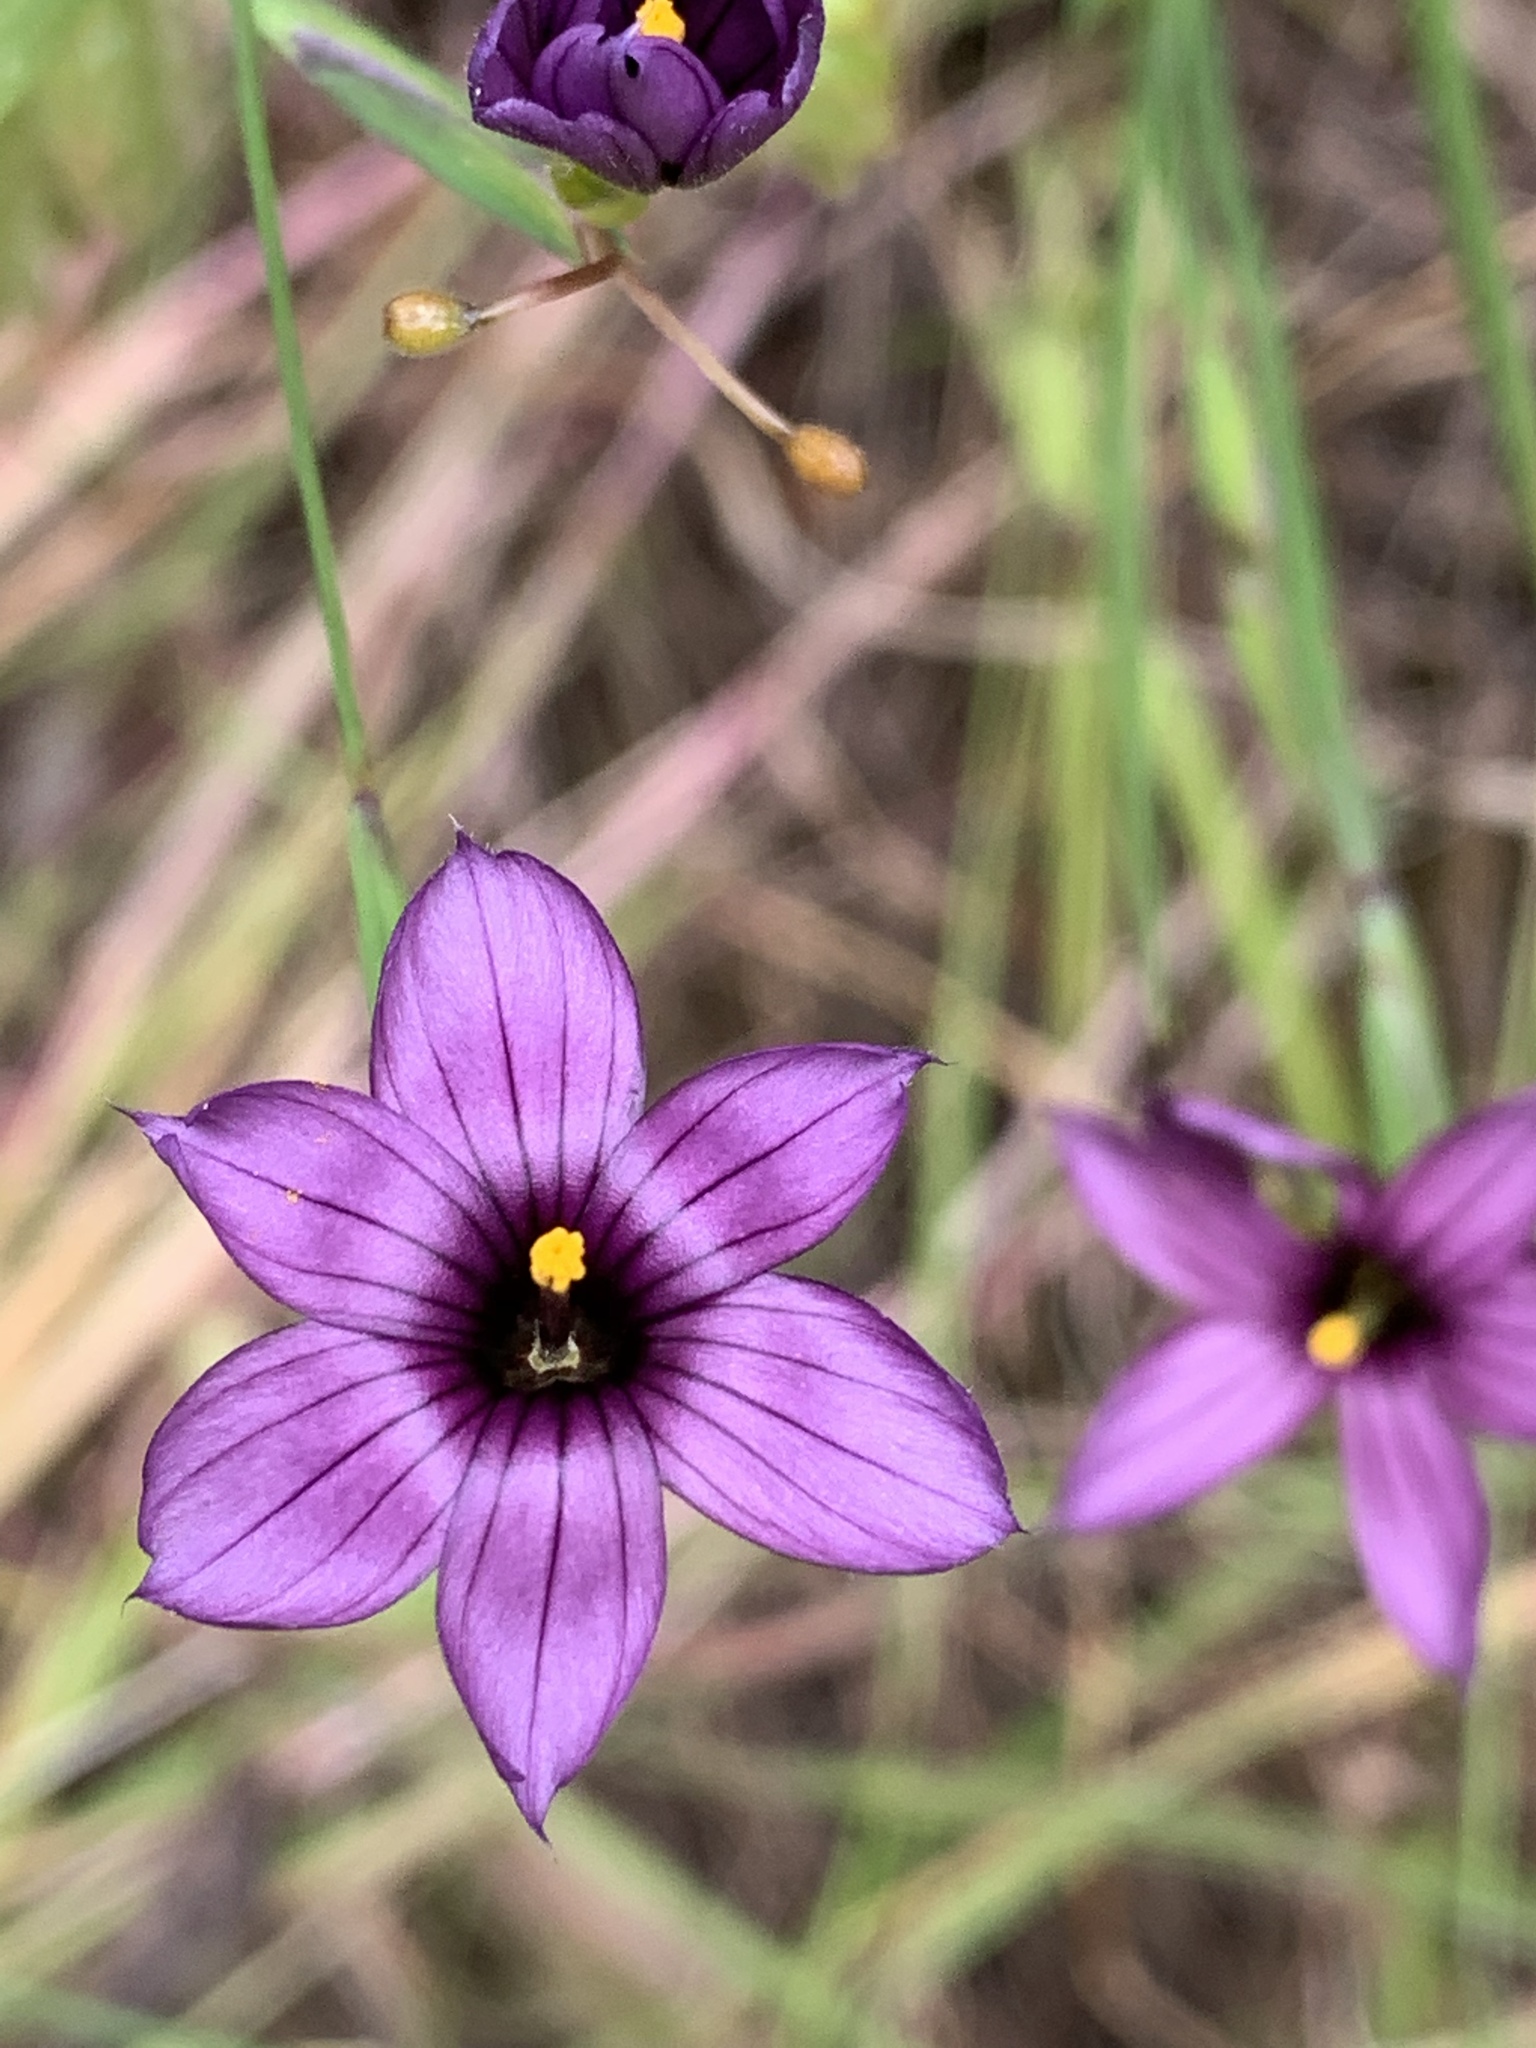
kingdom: Plantae
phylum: Tracheophyta
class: Liliopsida
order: Asparagales
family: Iridaceae
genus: Sisyrinchium
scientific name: Sisyrinchium bellum
